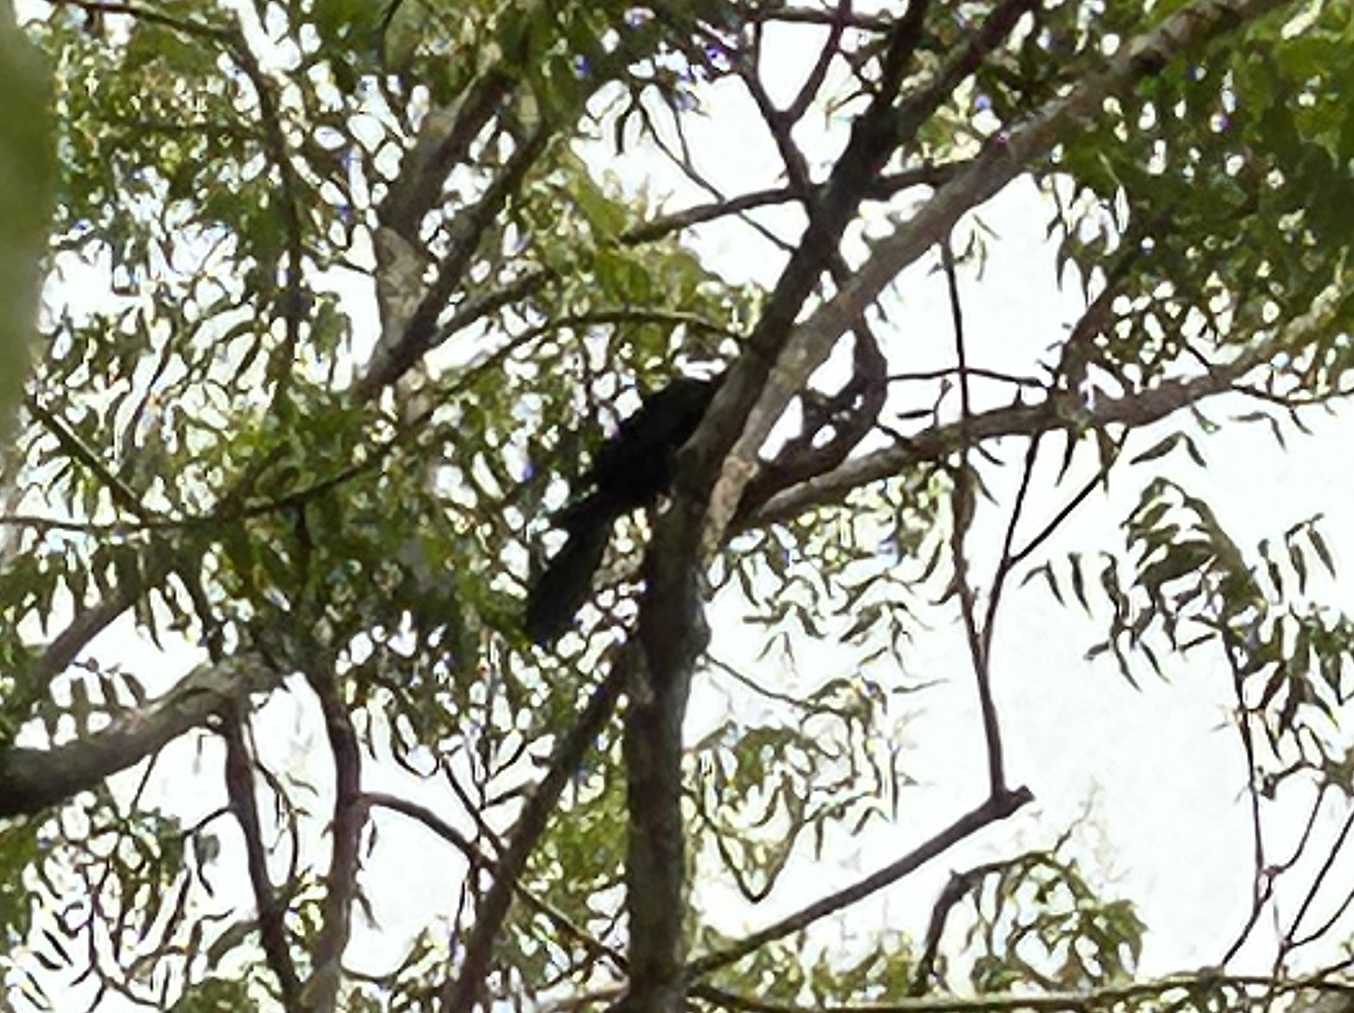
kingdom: Animalia
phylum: Chordata
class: Aves
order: Cuculiformes
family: Cuculidae
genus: Eudynamys
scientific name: Eudynamys scolopaceus
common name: Asian koel
